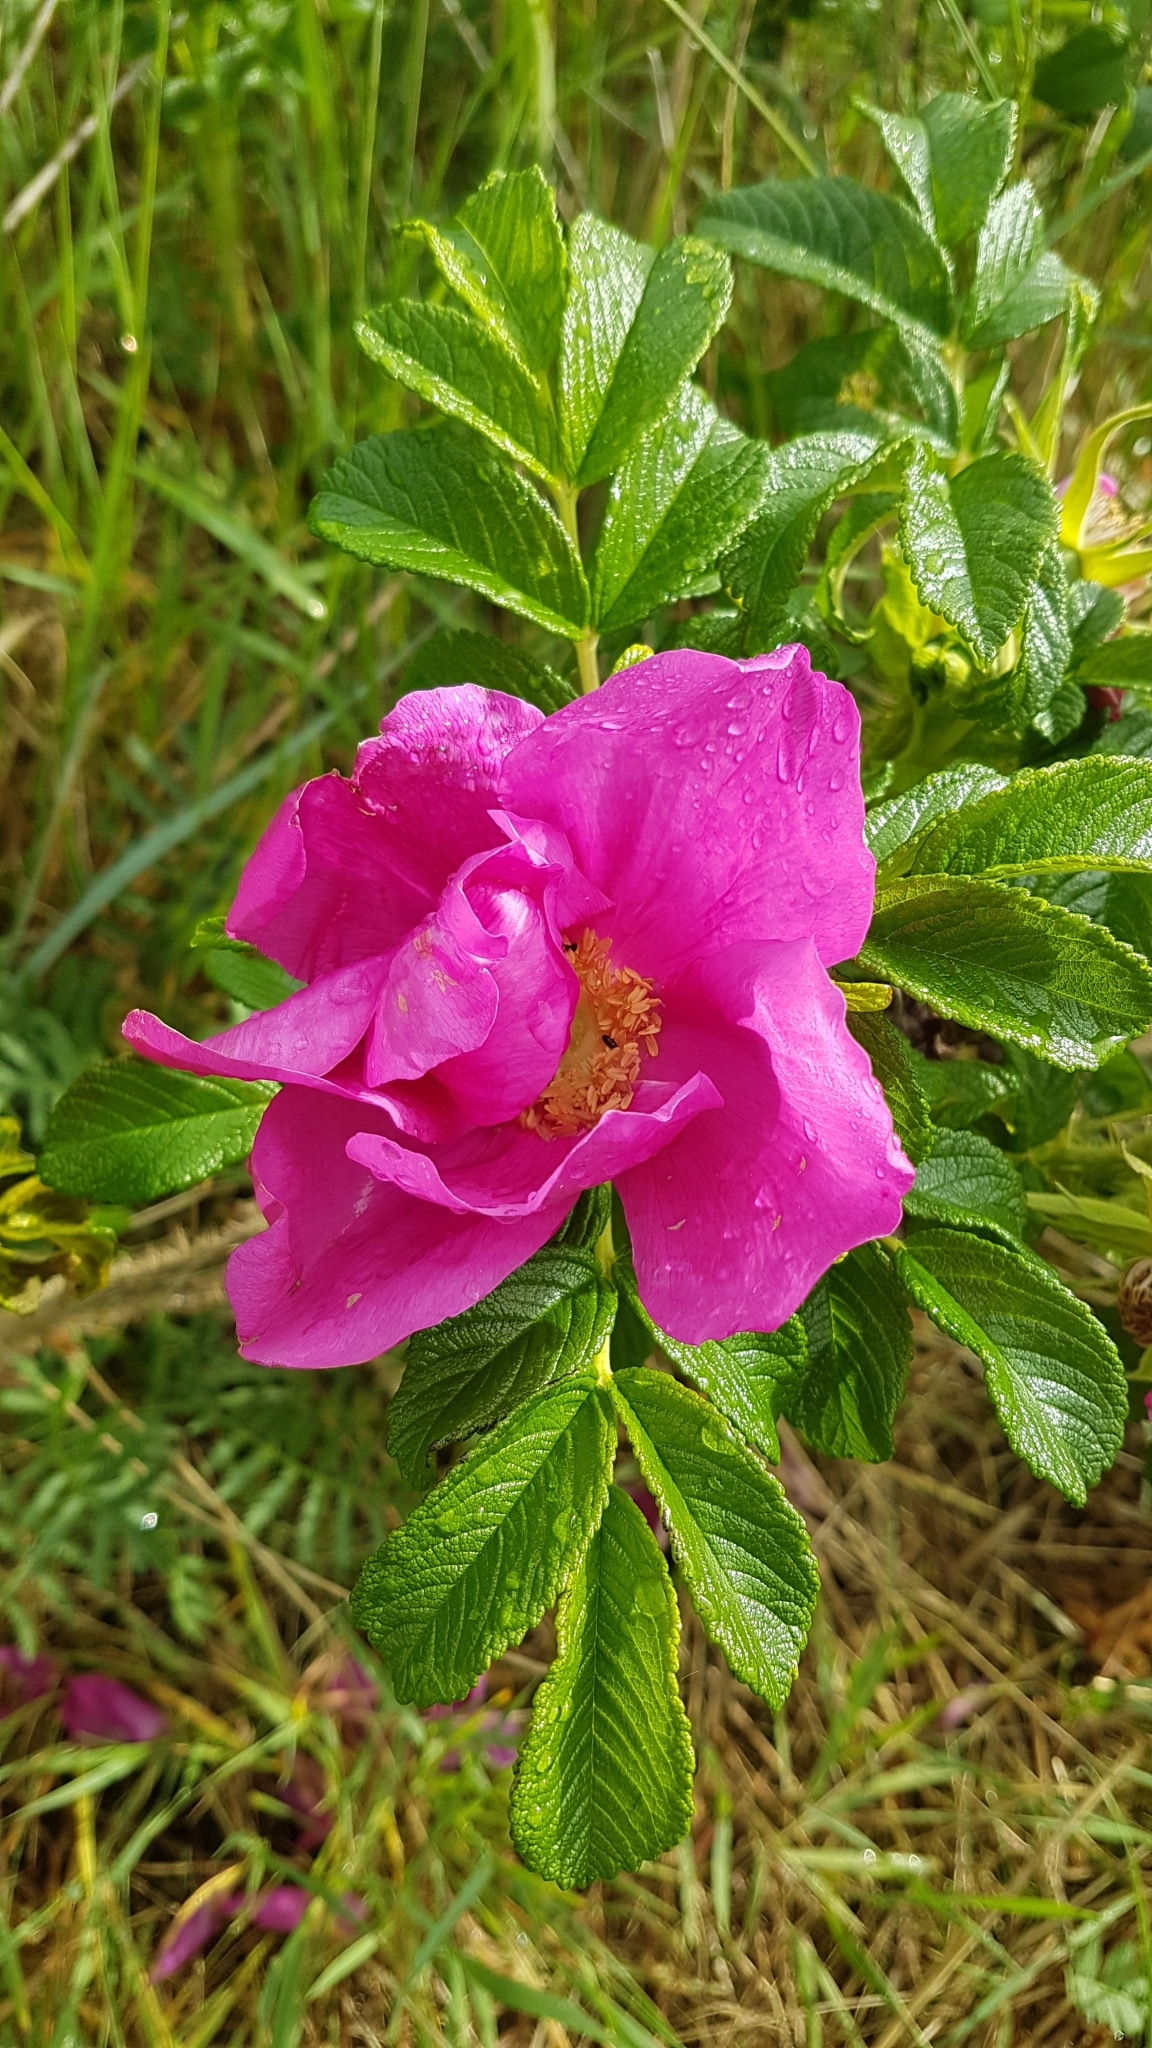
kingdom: Plantae
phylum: Tracheophyta
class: Magnoliopsida
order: Rosales
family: Rosaceae
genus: Rosa
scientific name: Rosa rugosa
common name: Japanese rose
